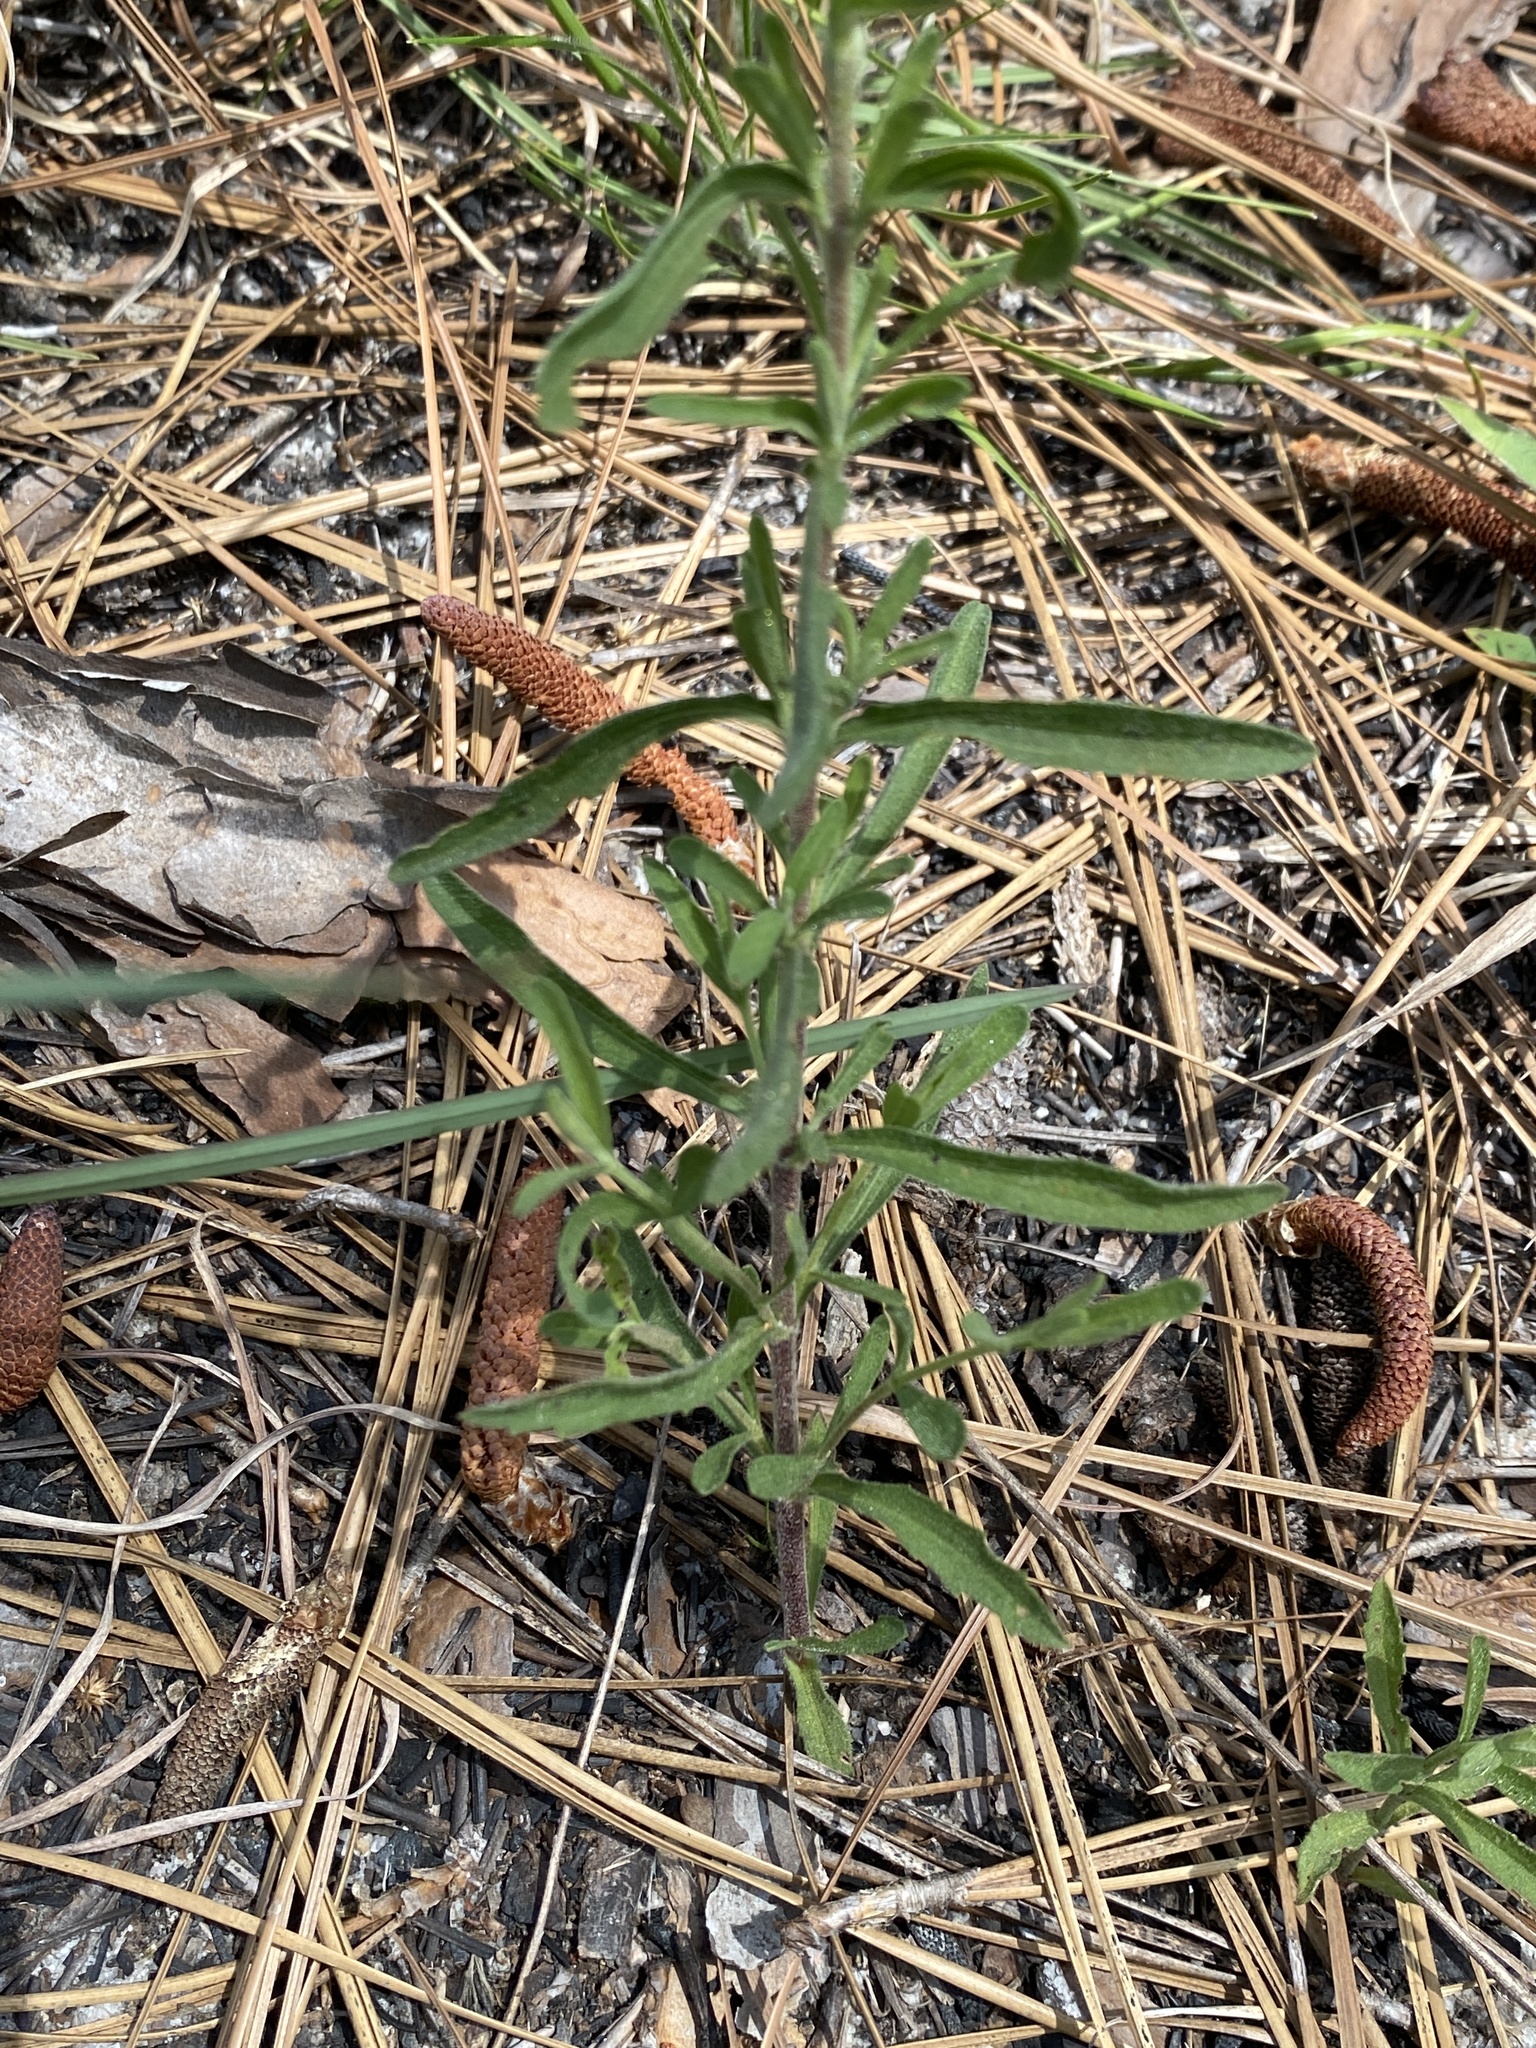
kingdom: Plantae
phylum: Tracheophyta
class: Magnoliopsida
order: Asterales
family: Asteraceae
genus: Eupatorium
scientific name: Eupatorium linearifolium
